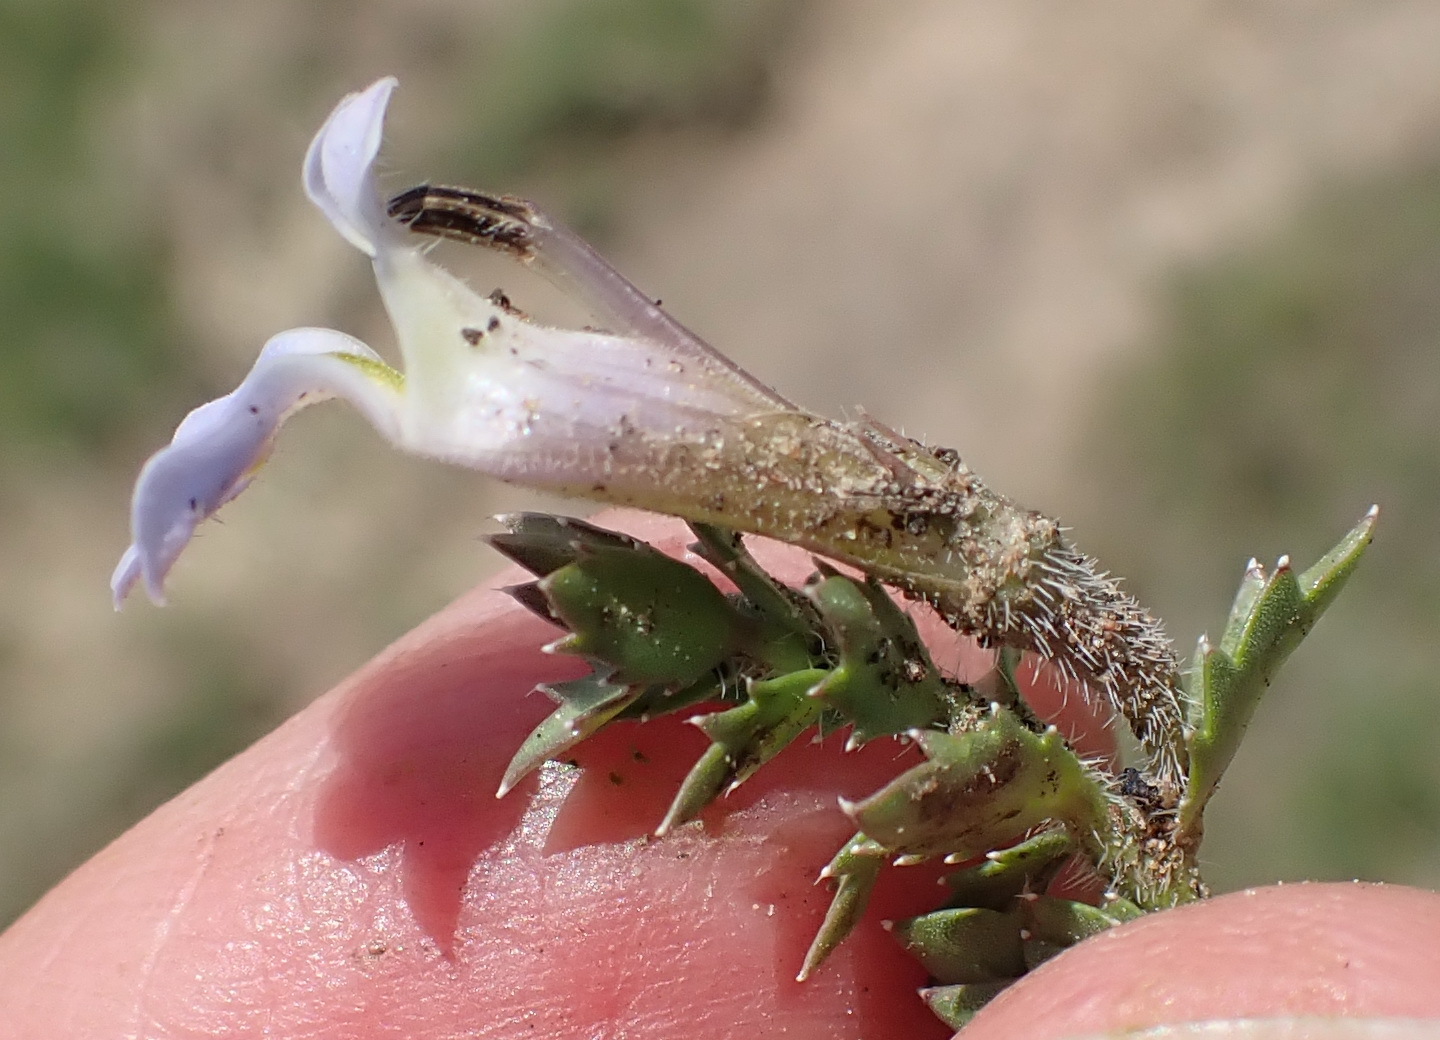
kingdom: Plantae
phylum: Tracheophyta
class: Magnoliopsida
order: Asterales
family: Campanulaceae
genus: Lobelia
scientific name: Lobelia thermalis
